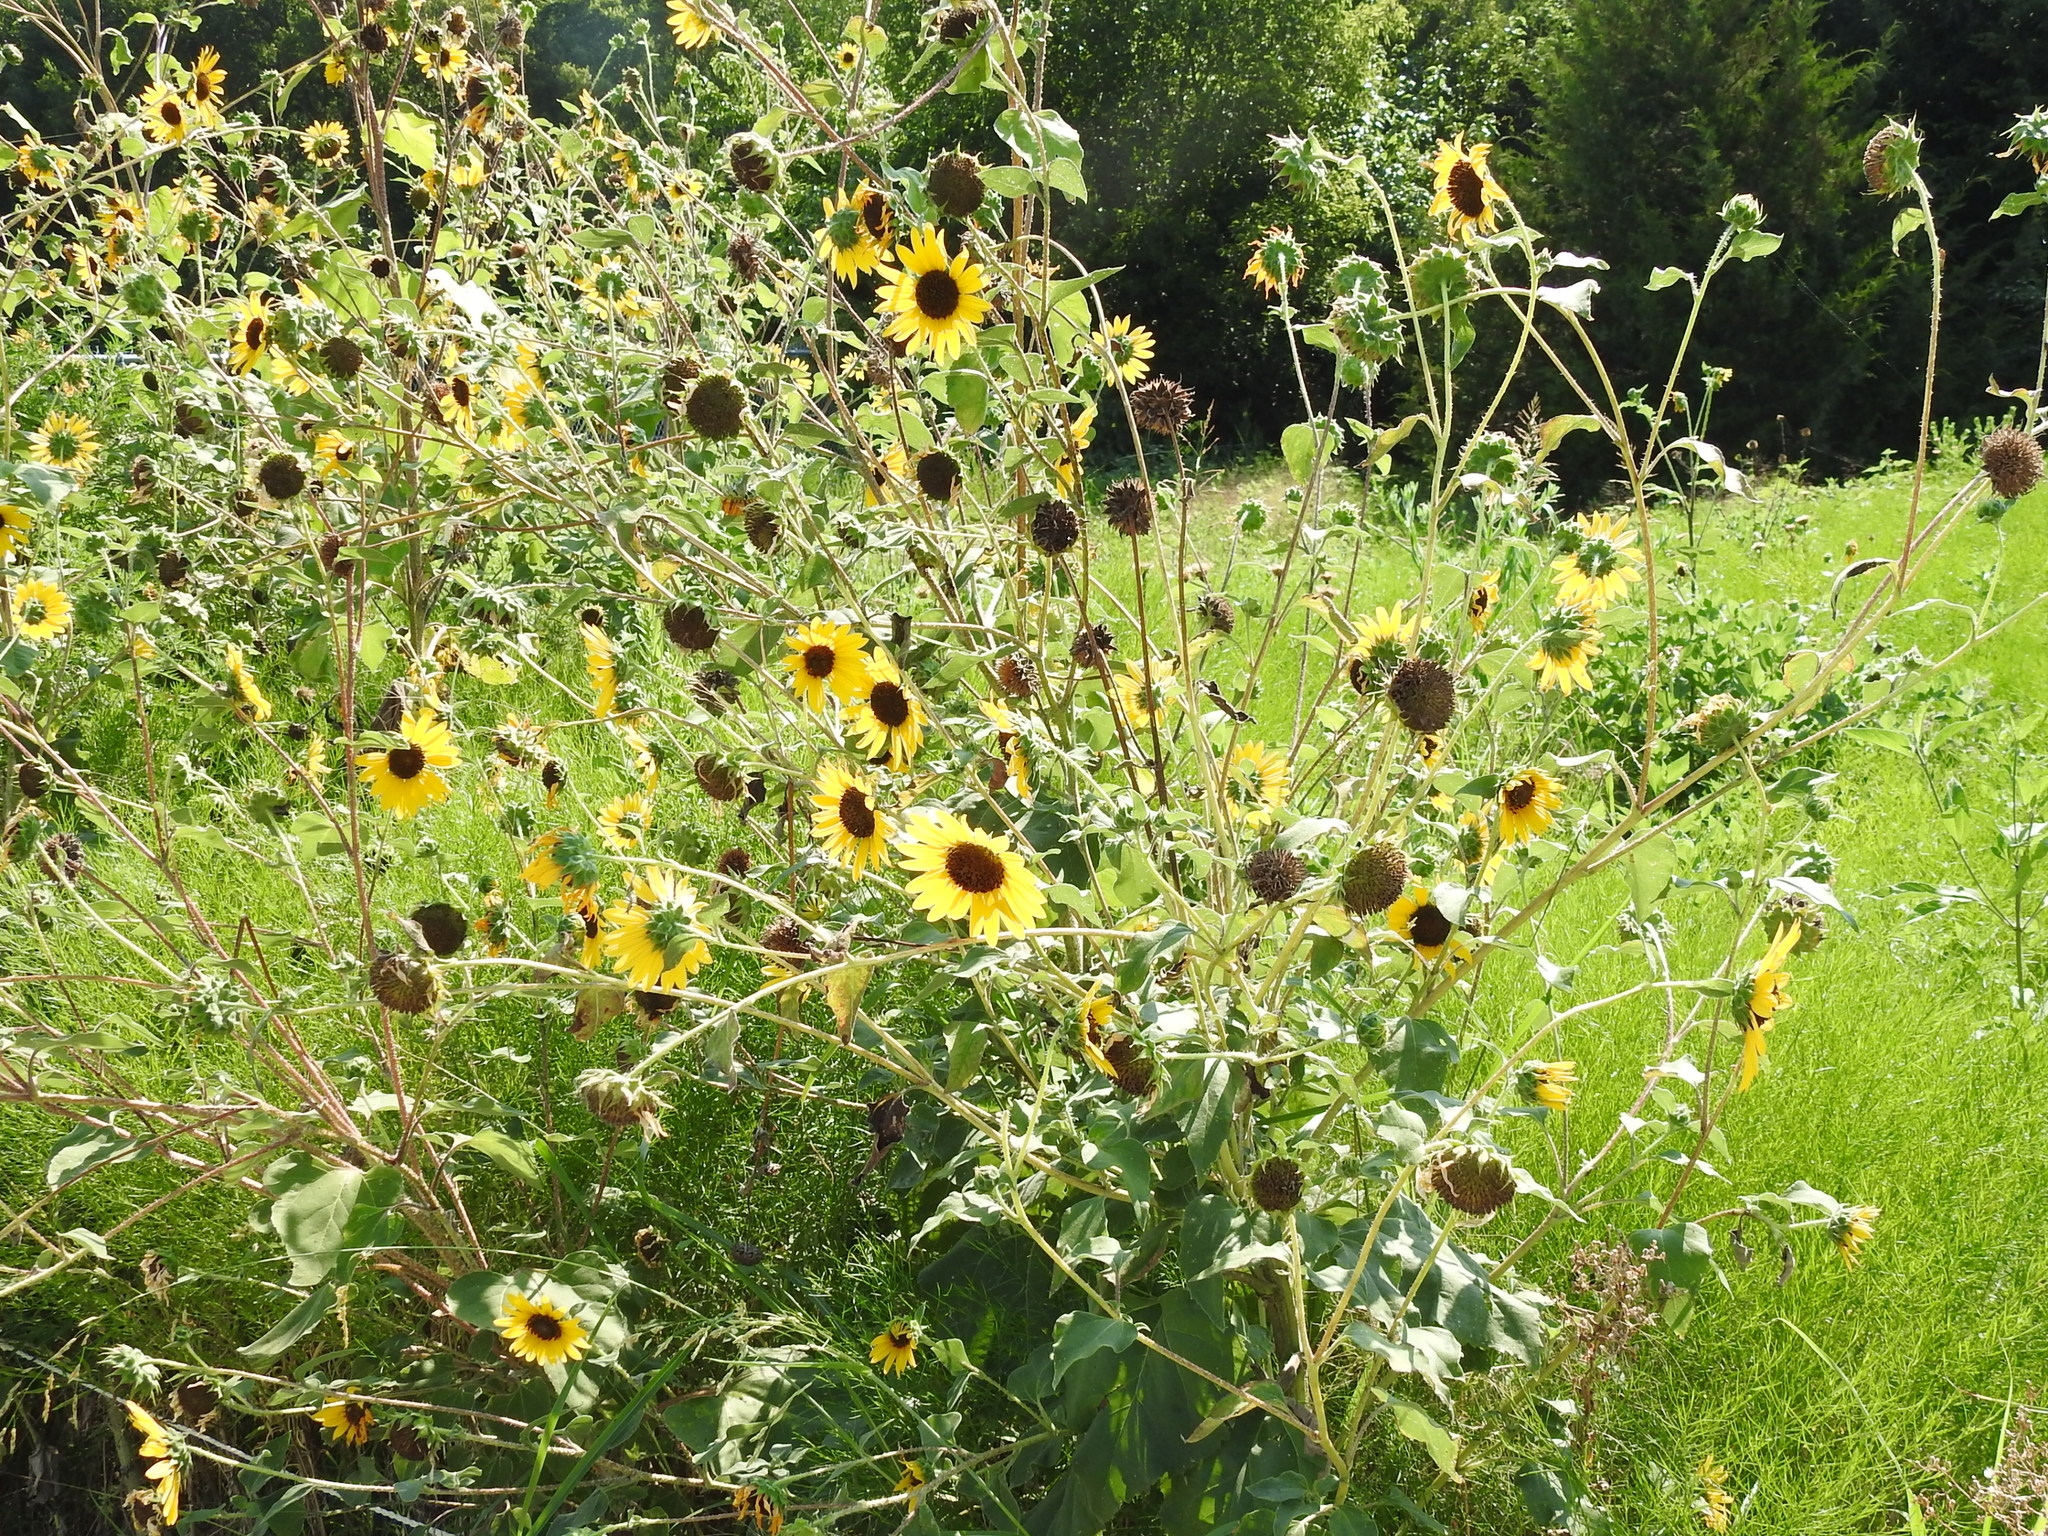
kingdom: Plantae
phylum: Tracheophyta
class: Magnoliopsida
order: Asterales
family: Asteraceae
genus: Helianthus
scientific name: Helianthus annuus
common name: Sunflower
